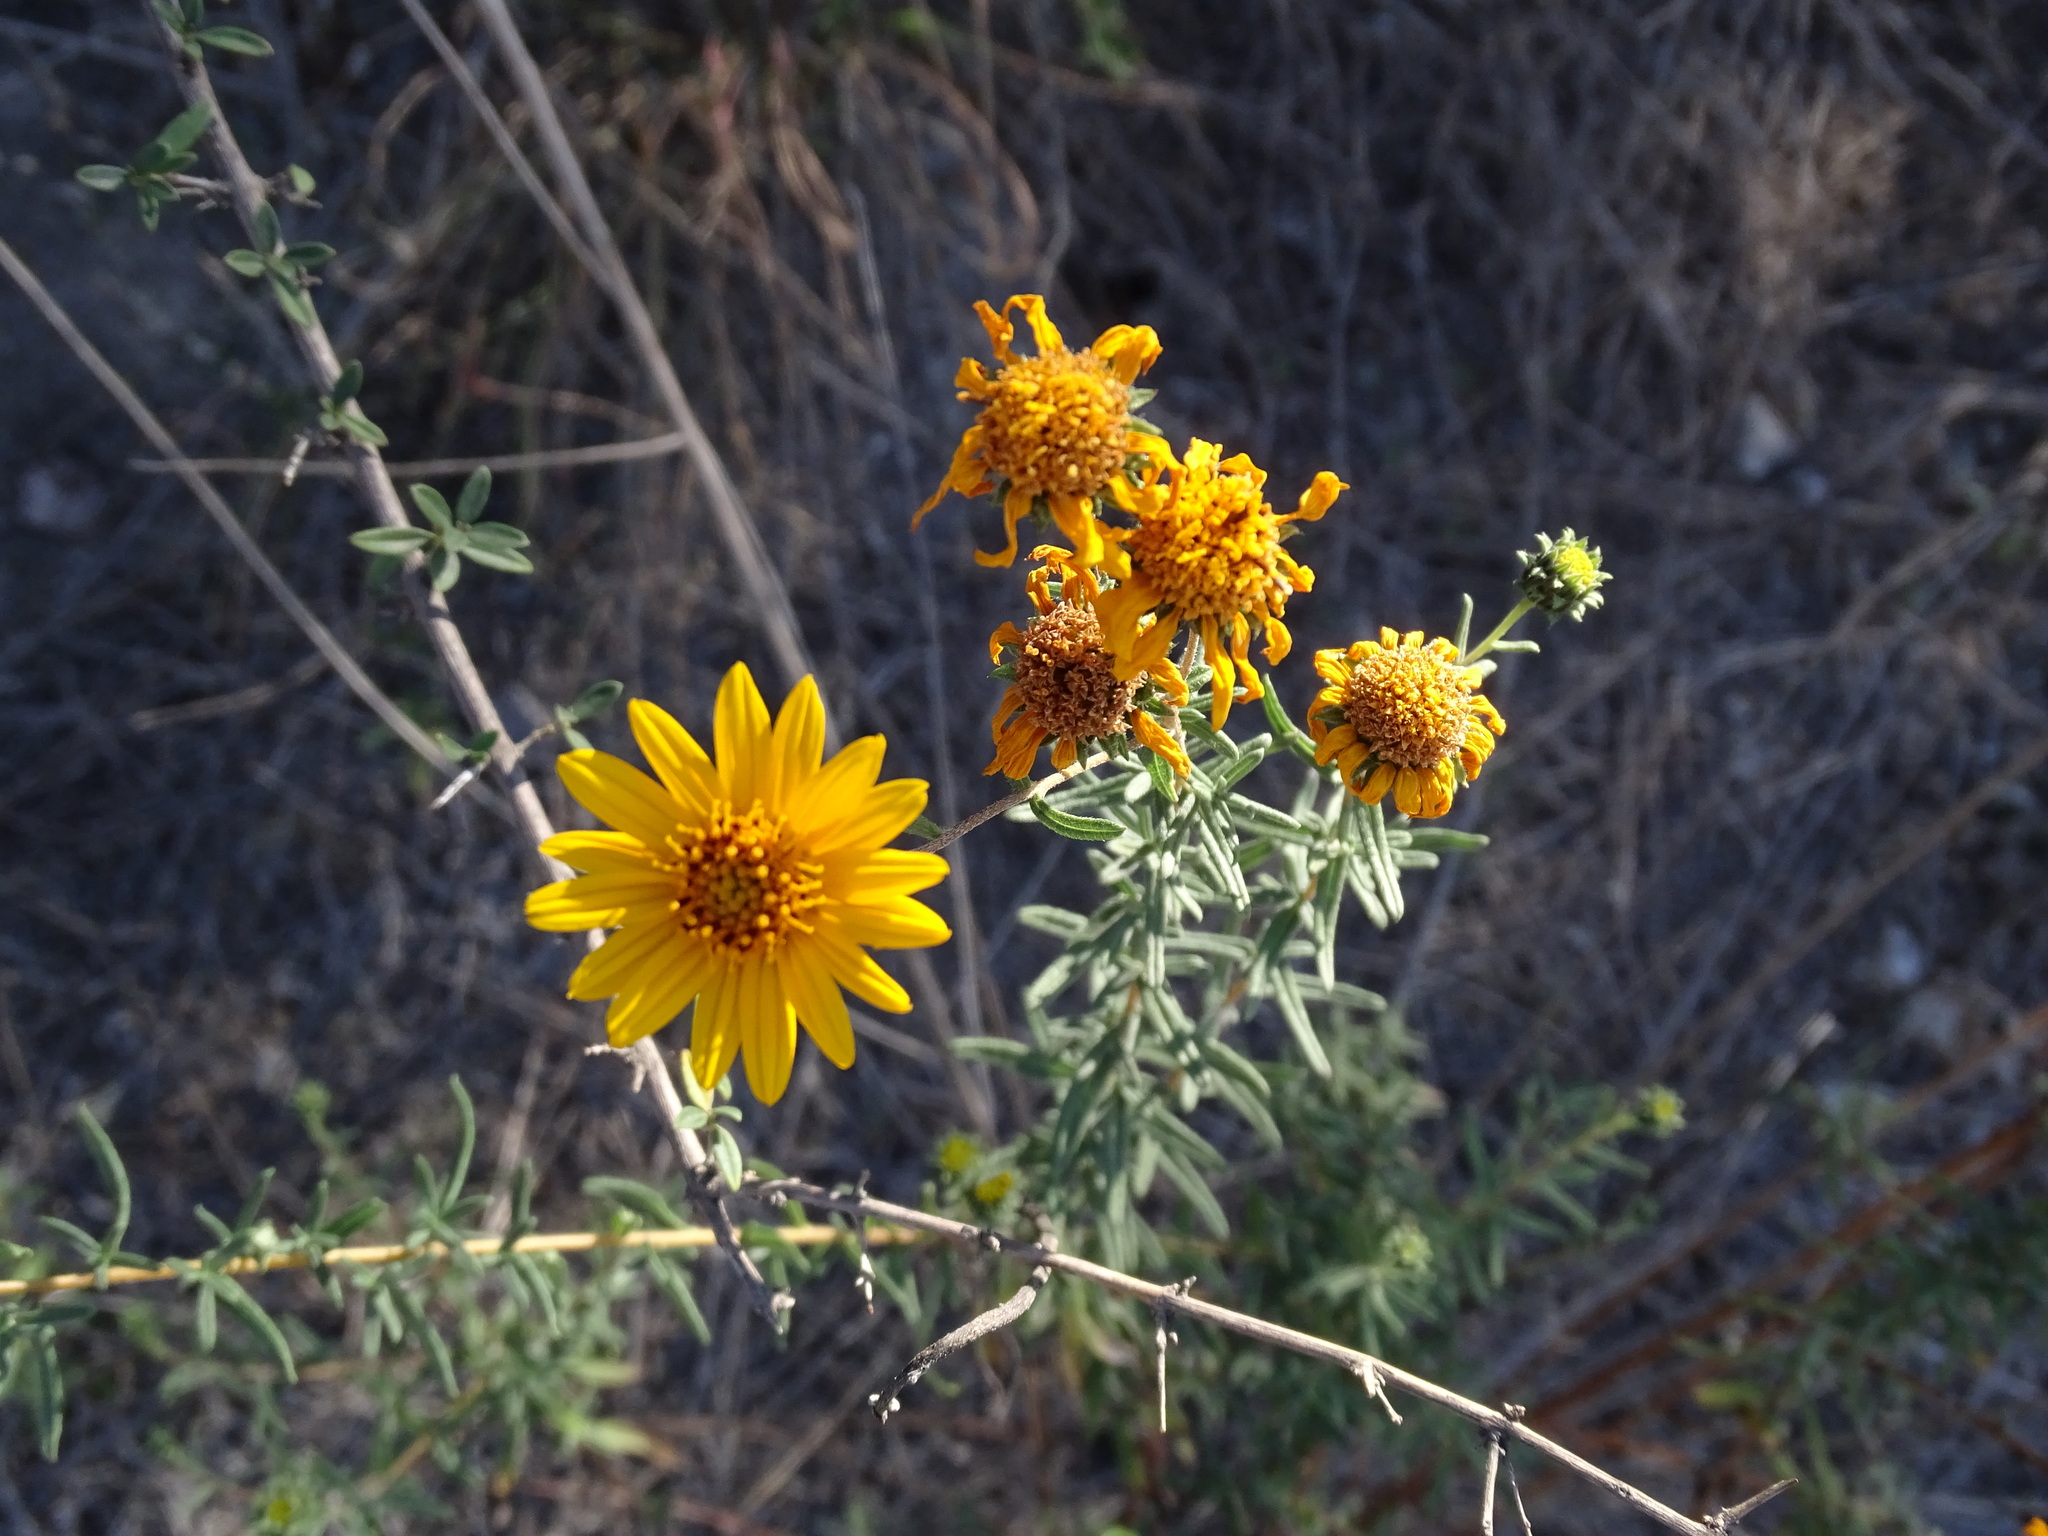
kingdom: Plantae
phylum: Tracheophyta
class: Magnoliopsida
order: Asterales
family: Asteraceae
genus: Aldama
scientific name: Aldama linearis
